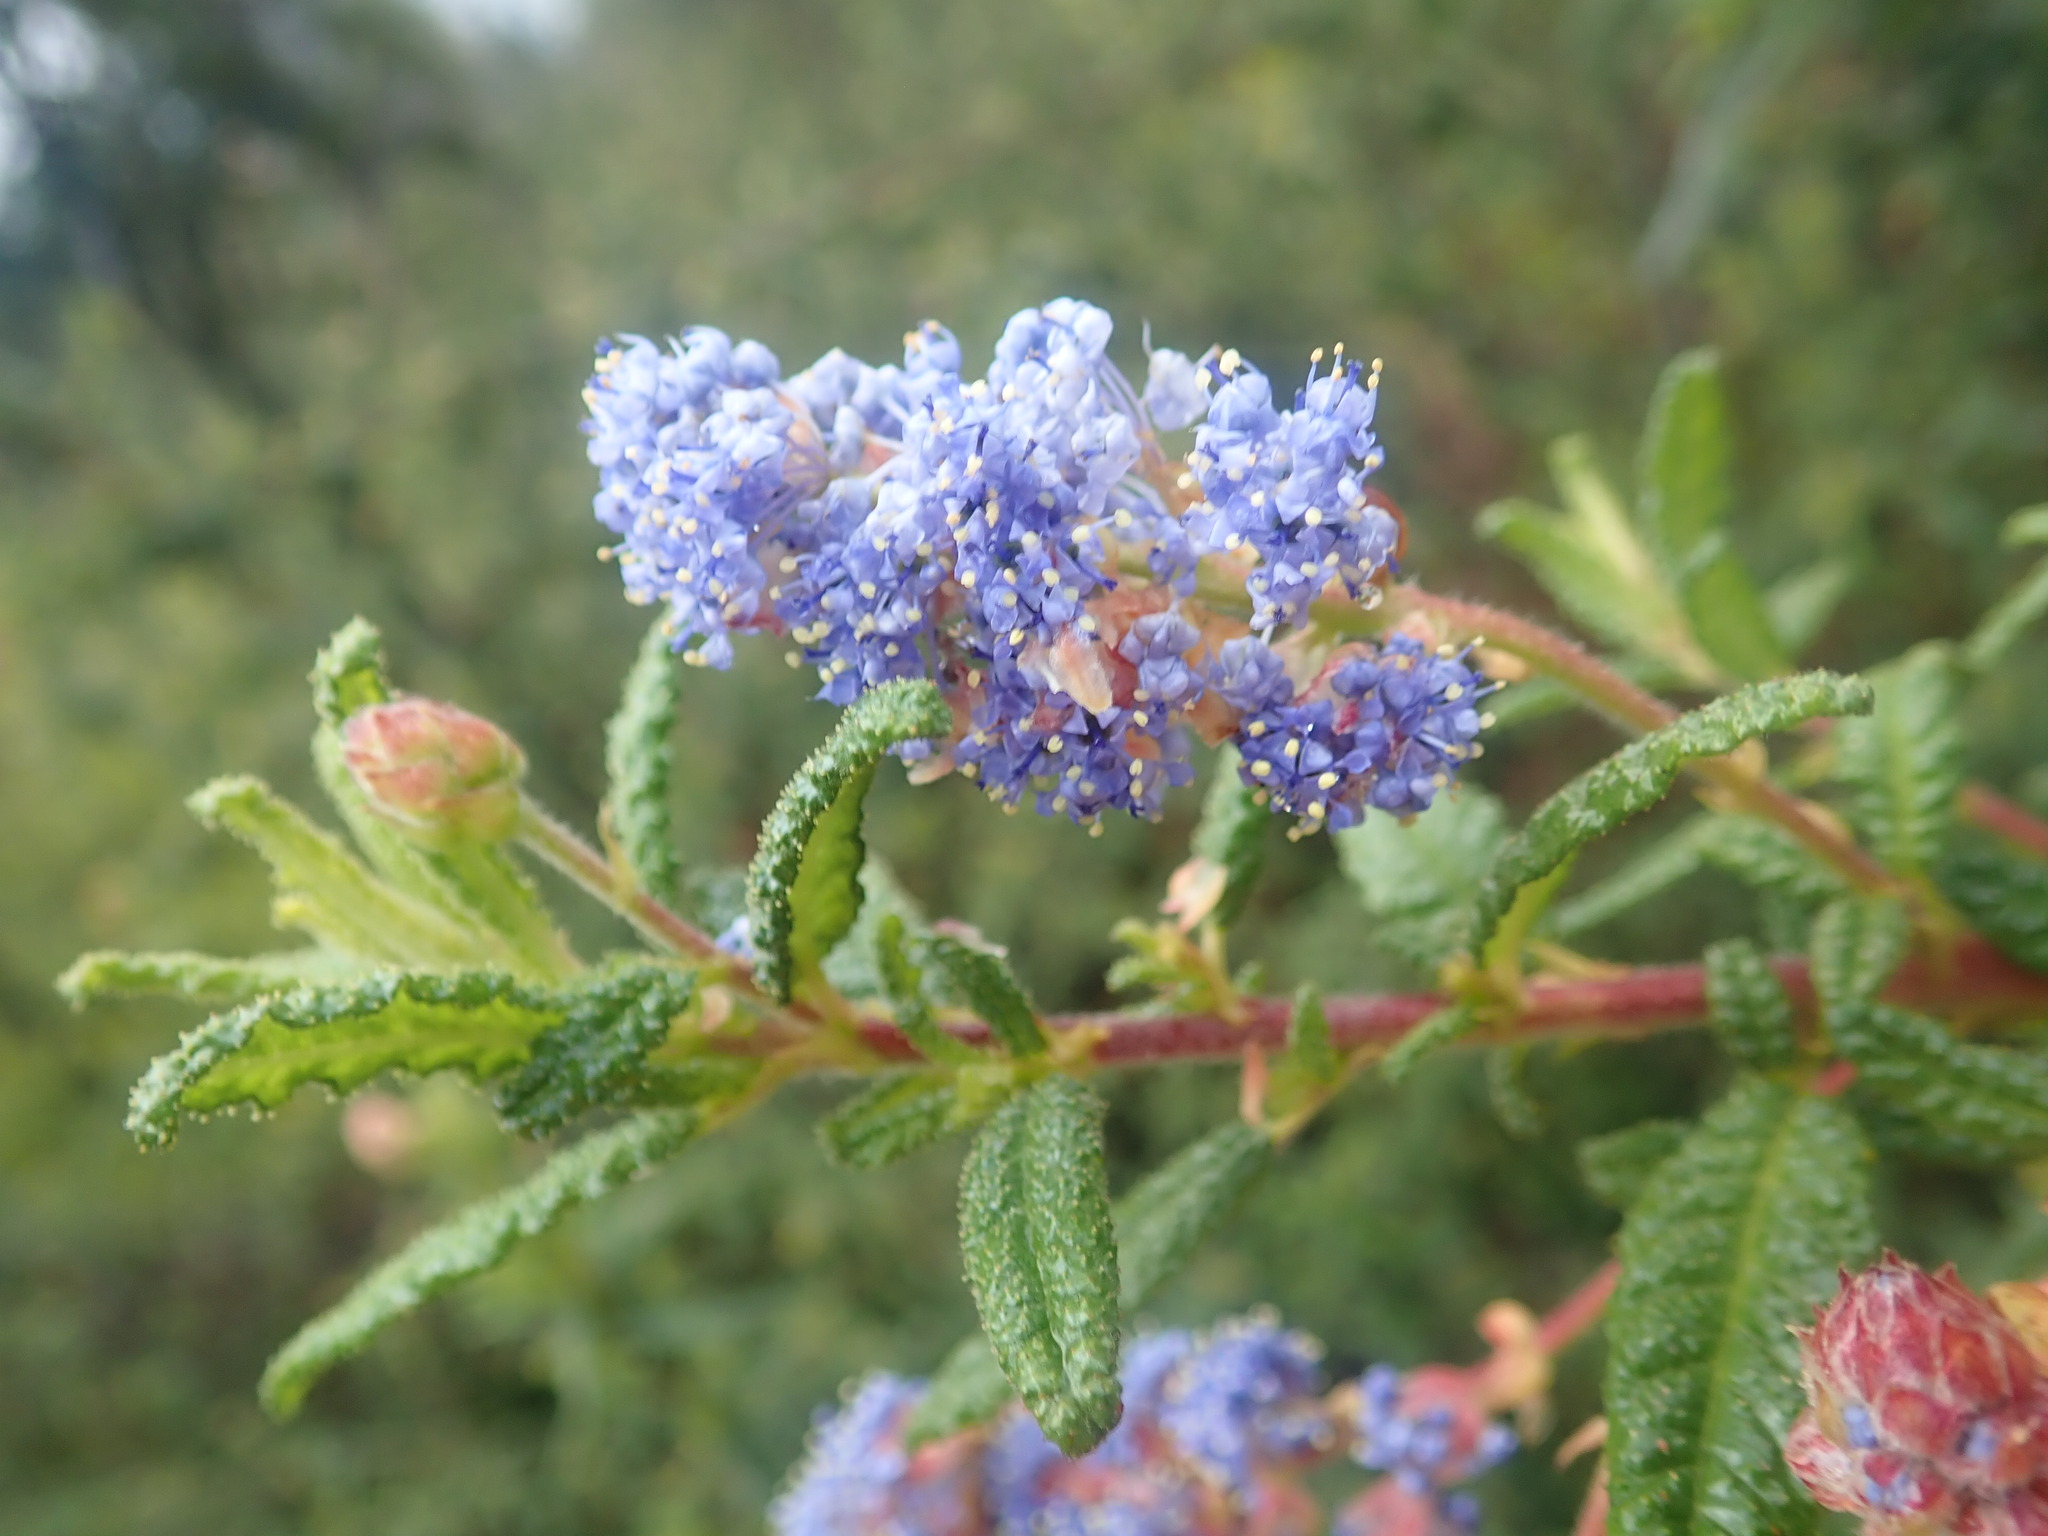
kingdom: Plantae
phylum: Tracheophyta
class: Magnoliopsida
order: Rosales
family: Rhamnaceae
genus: Ceanothus
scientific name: Ceanothus papillosus
